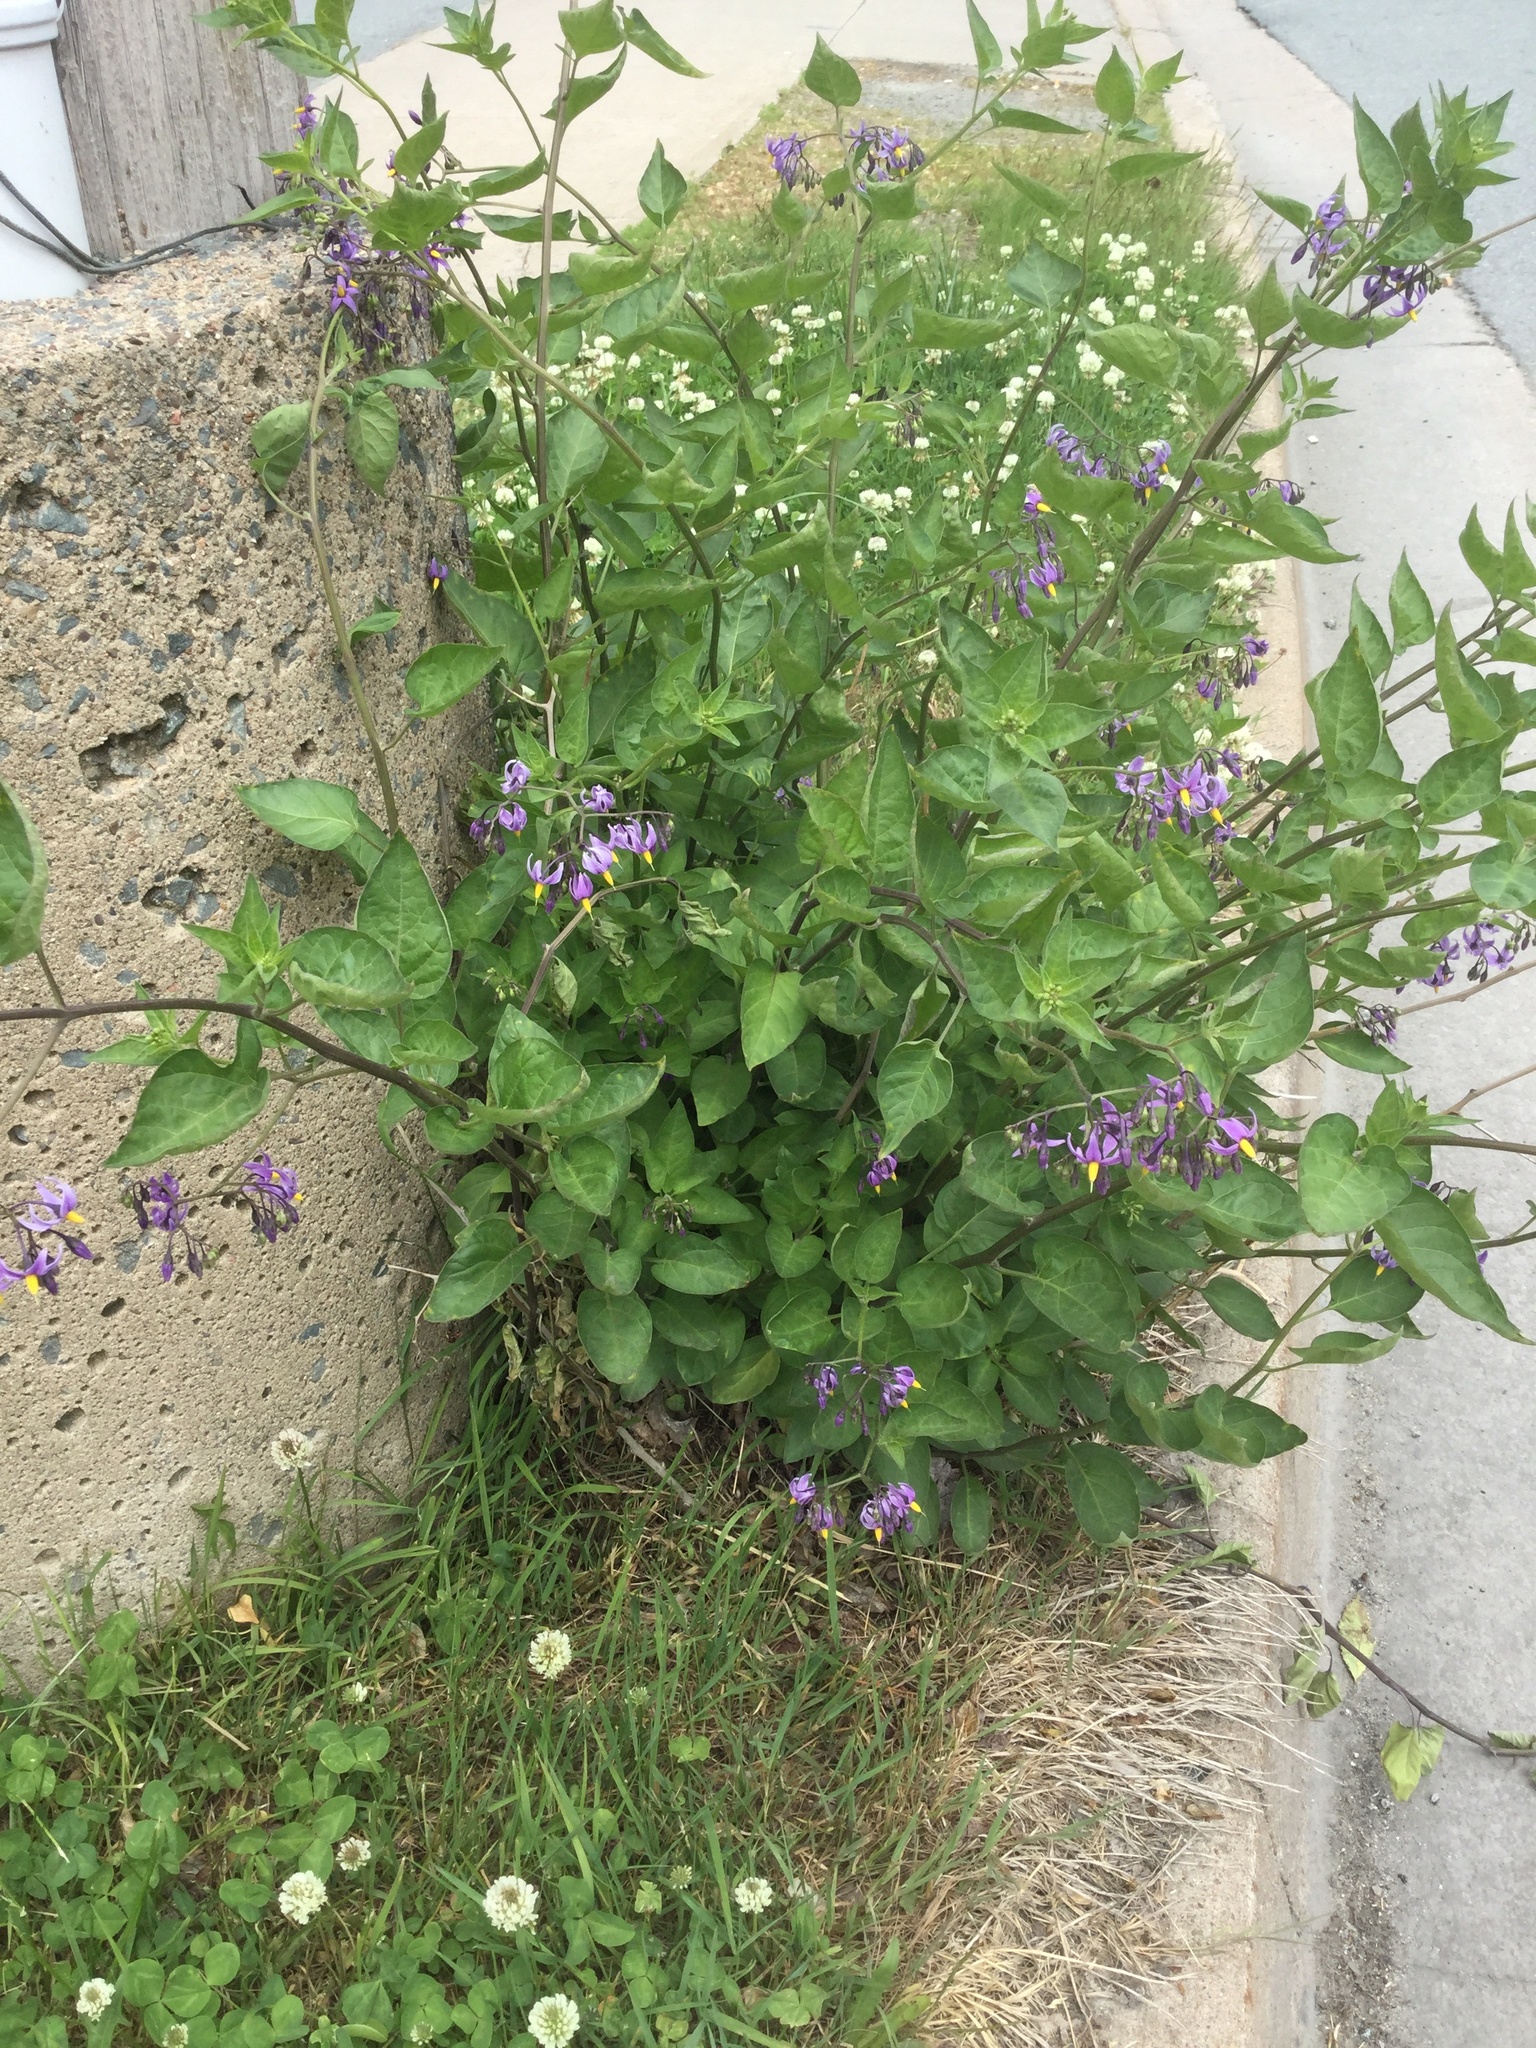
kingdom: Plantae
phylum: Tracheophyta
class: Magnoliopsida
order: Solanales
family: Solanaceae
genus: Solanum
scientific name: Solanum dulcamara
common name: Climbing nightshade
